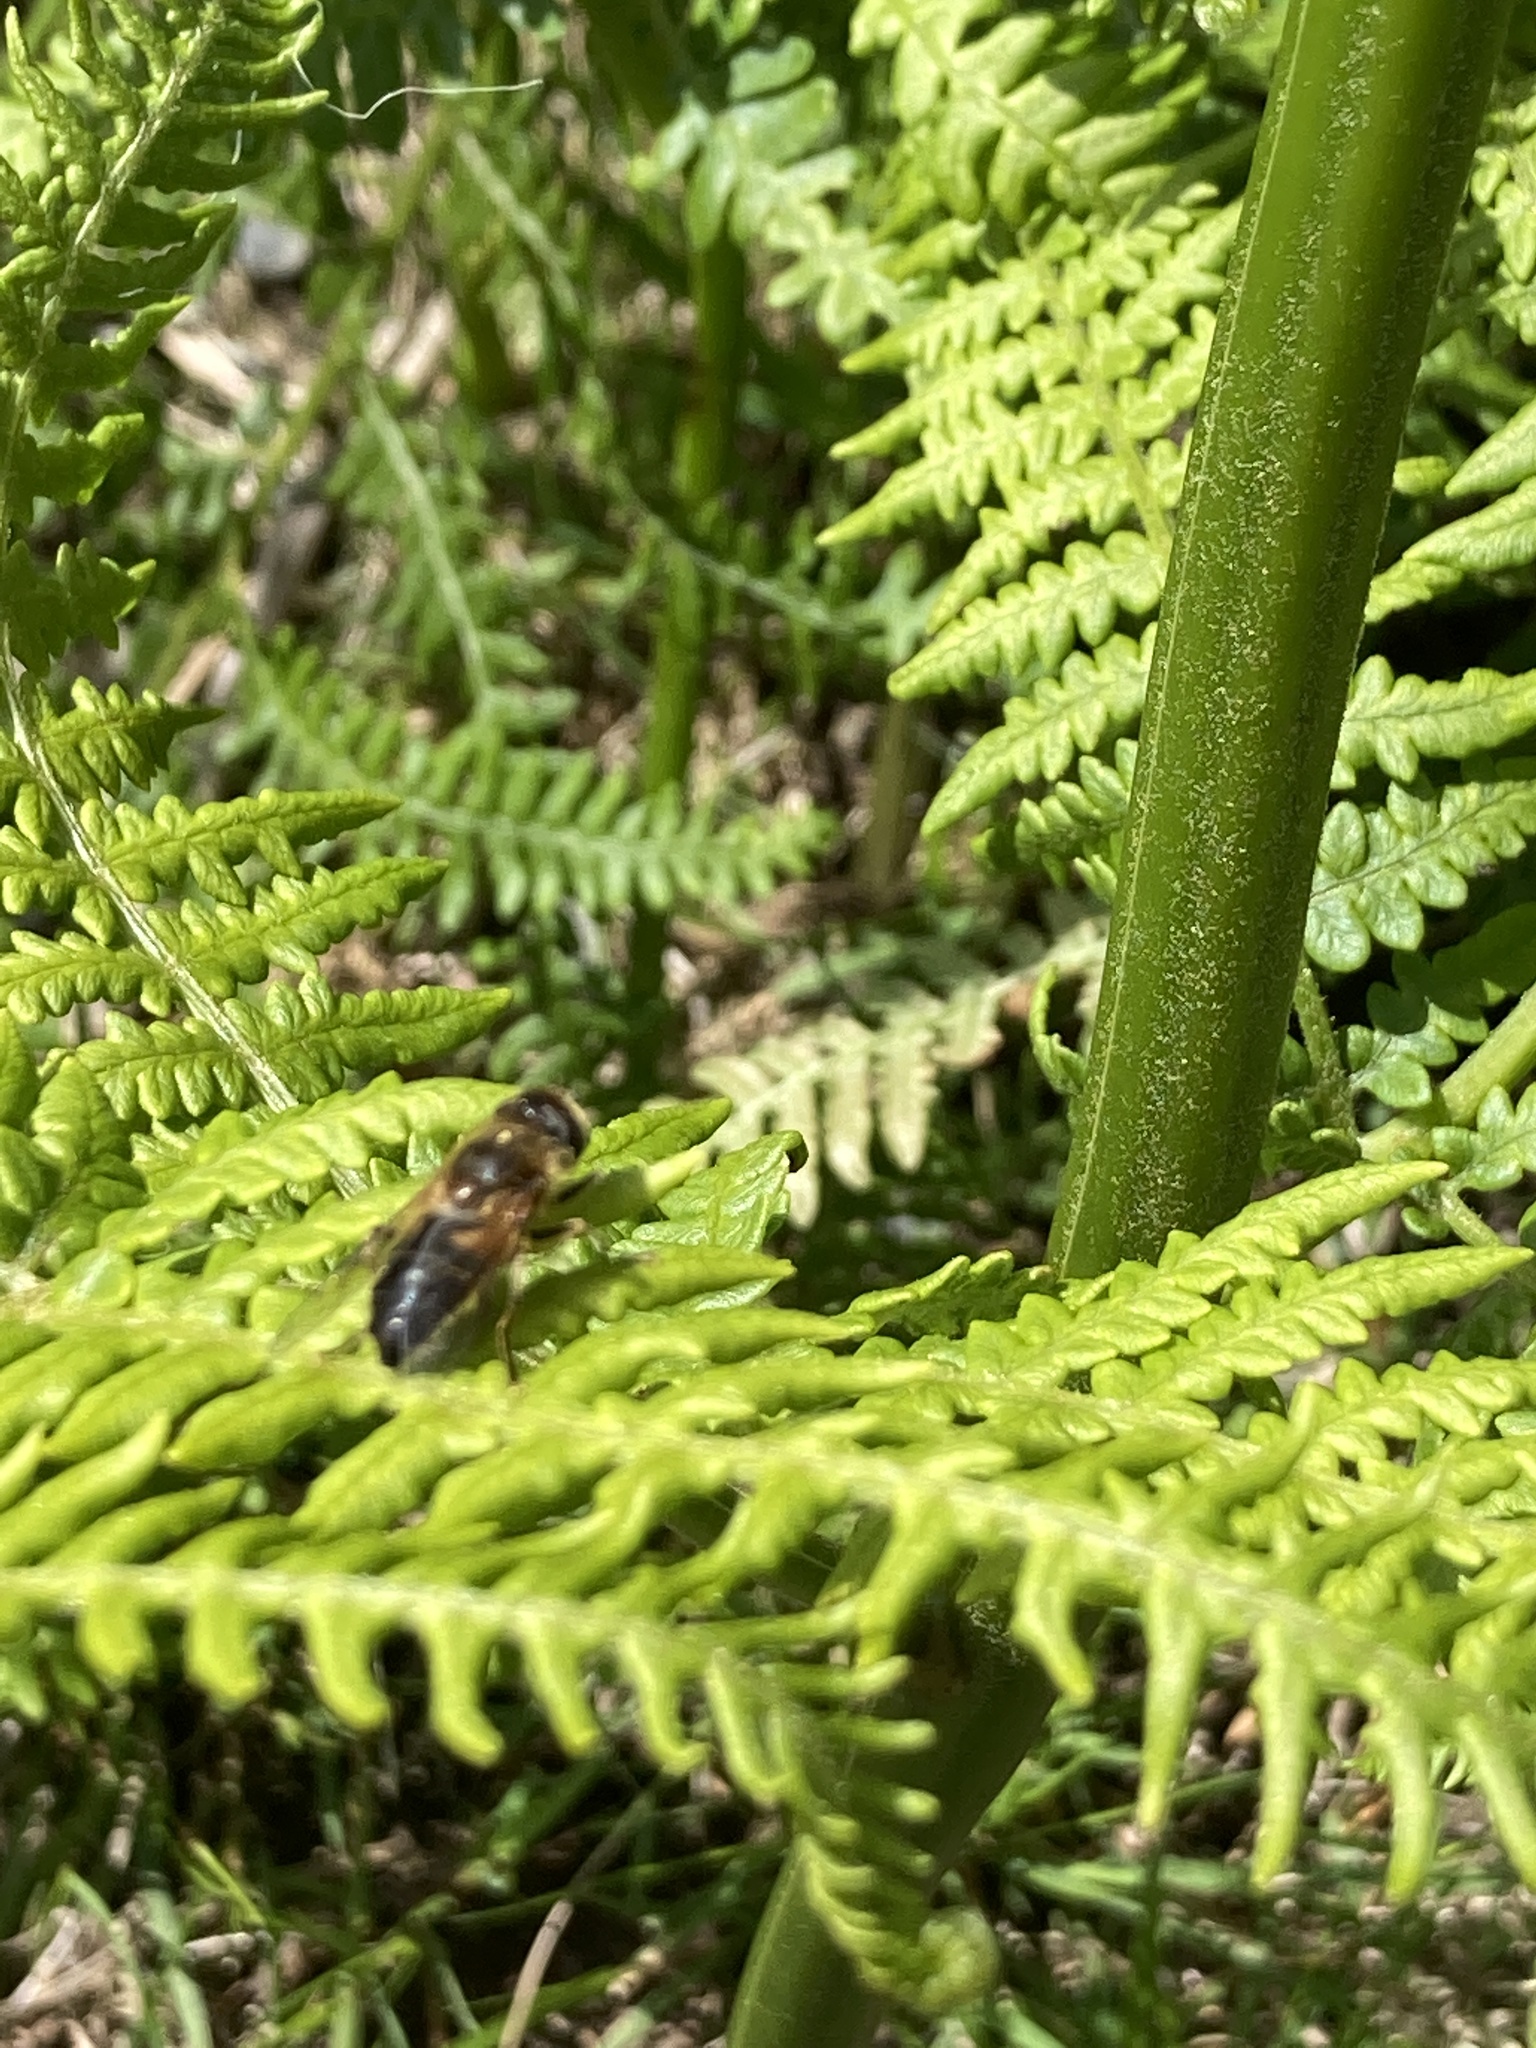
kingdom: Animalia
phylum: Arthropoda
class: Insecta
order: Diptera
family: Syrphidae
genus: Eoseristalis
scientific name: Eoseristalis
